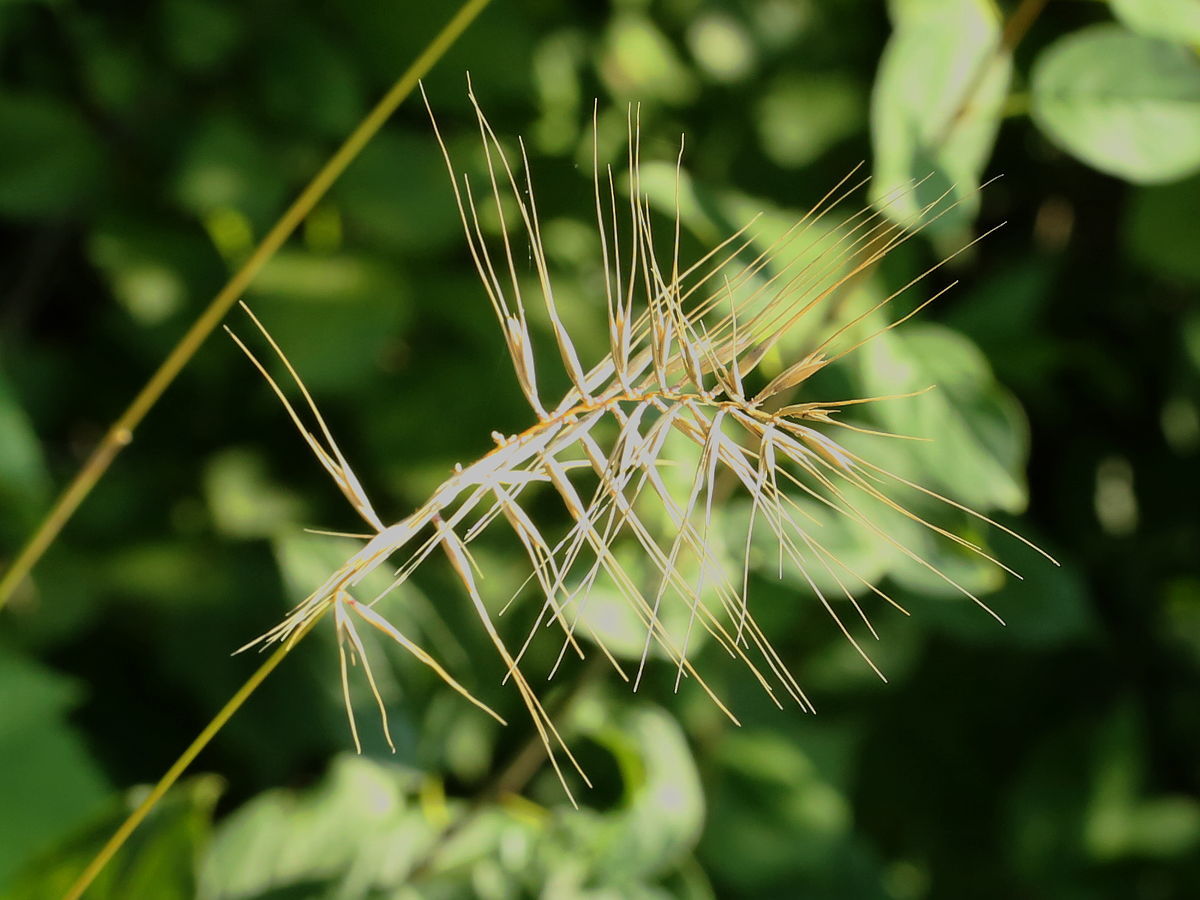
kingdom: Plantae
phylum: Tracheophyta
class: Liliopsida
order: Poales
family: Poaceae
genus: Elymus
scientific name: Elymus hystrix
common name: Bottlebrush grass
